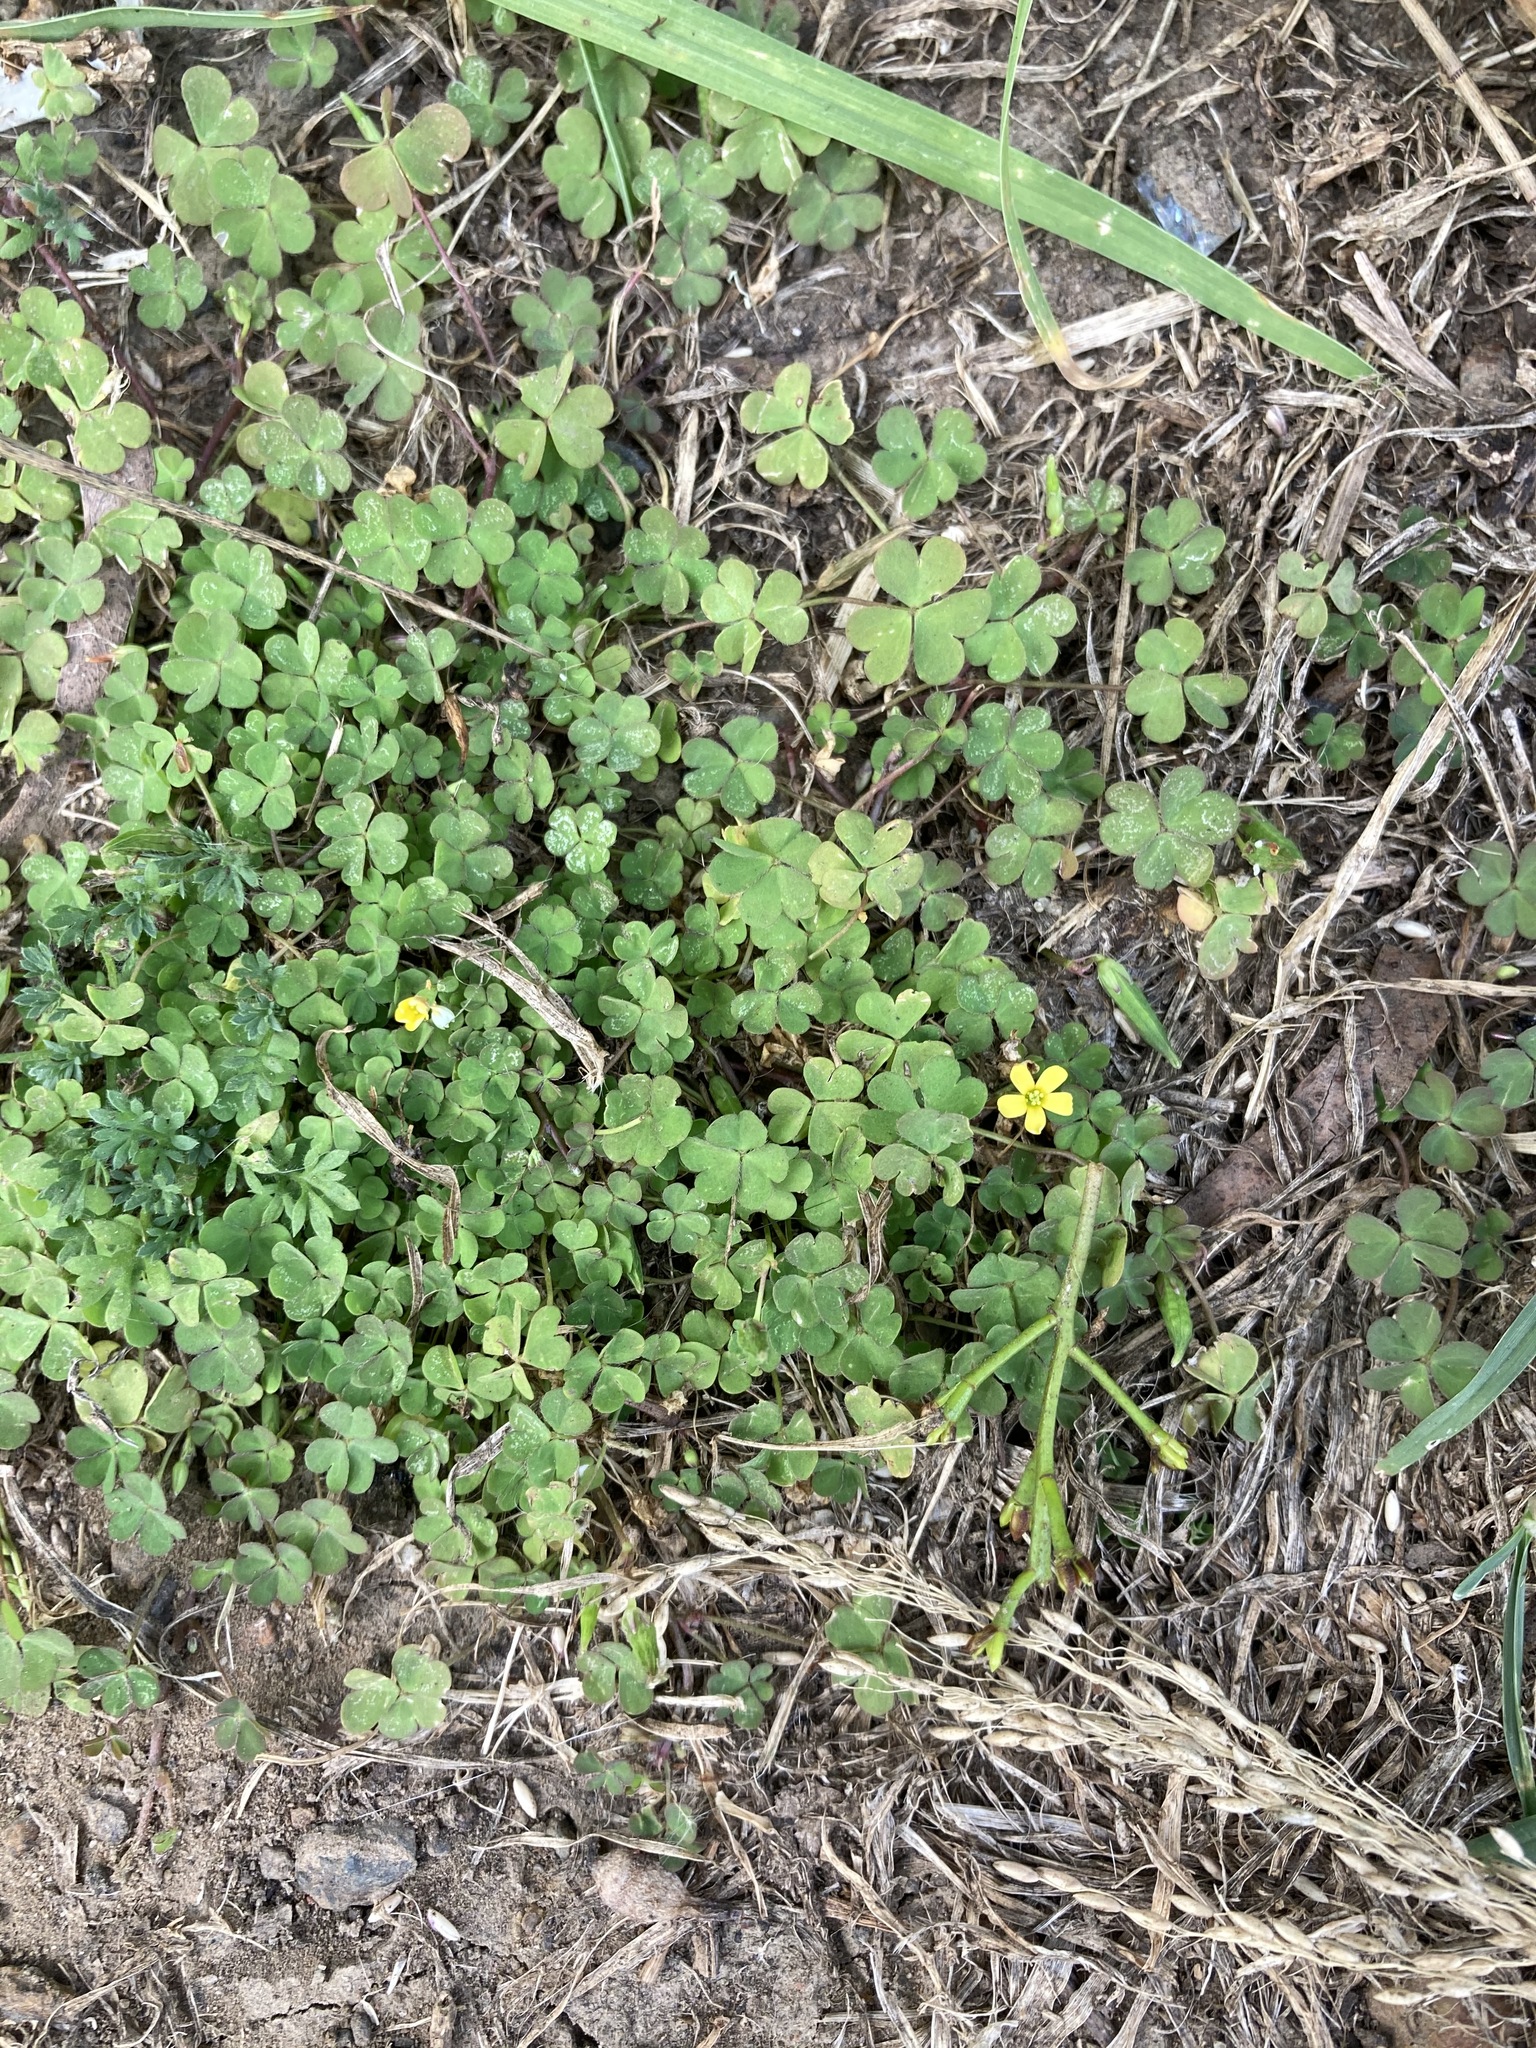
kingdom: Plantae
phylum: Tracheophyta
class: Magnoliopsida
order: Oxalidales
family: Oxalidaceae
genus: Oxalis
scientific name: Oxalis corniculata
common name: Procumbent yellow-sorrel
